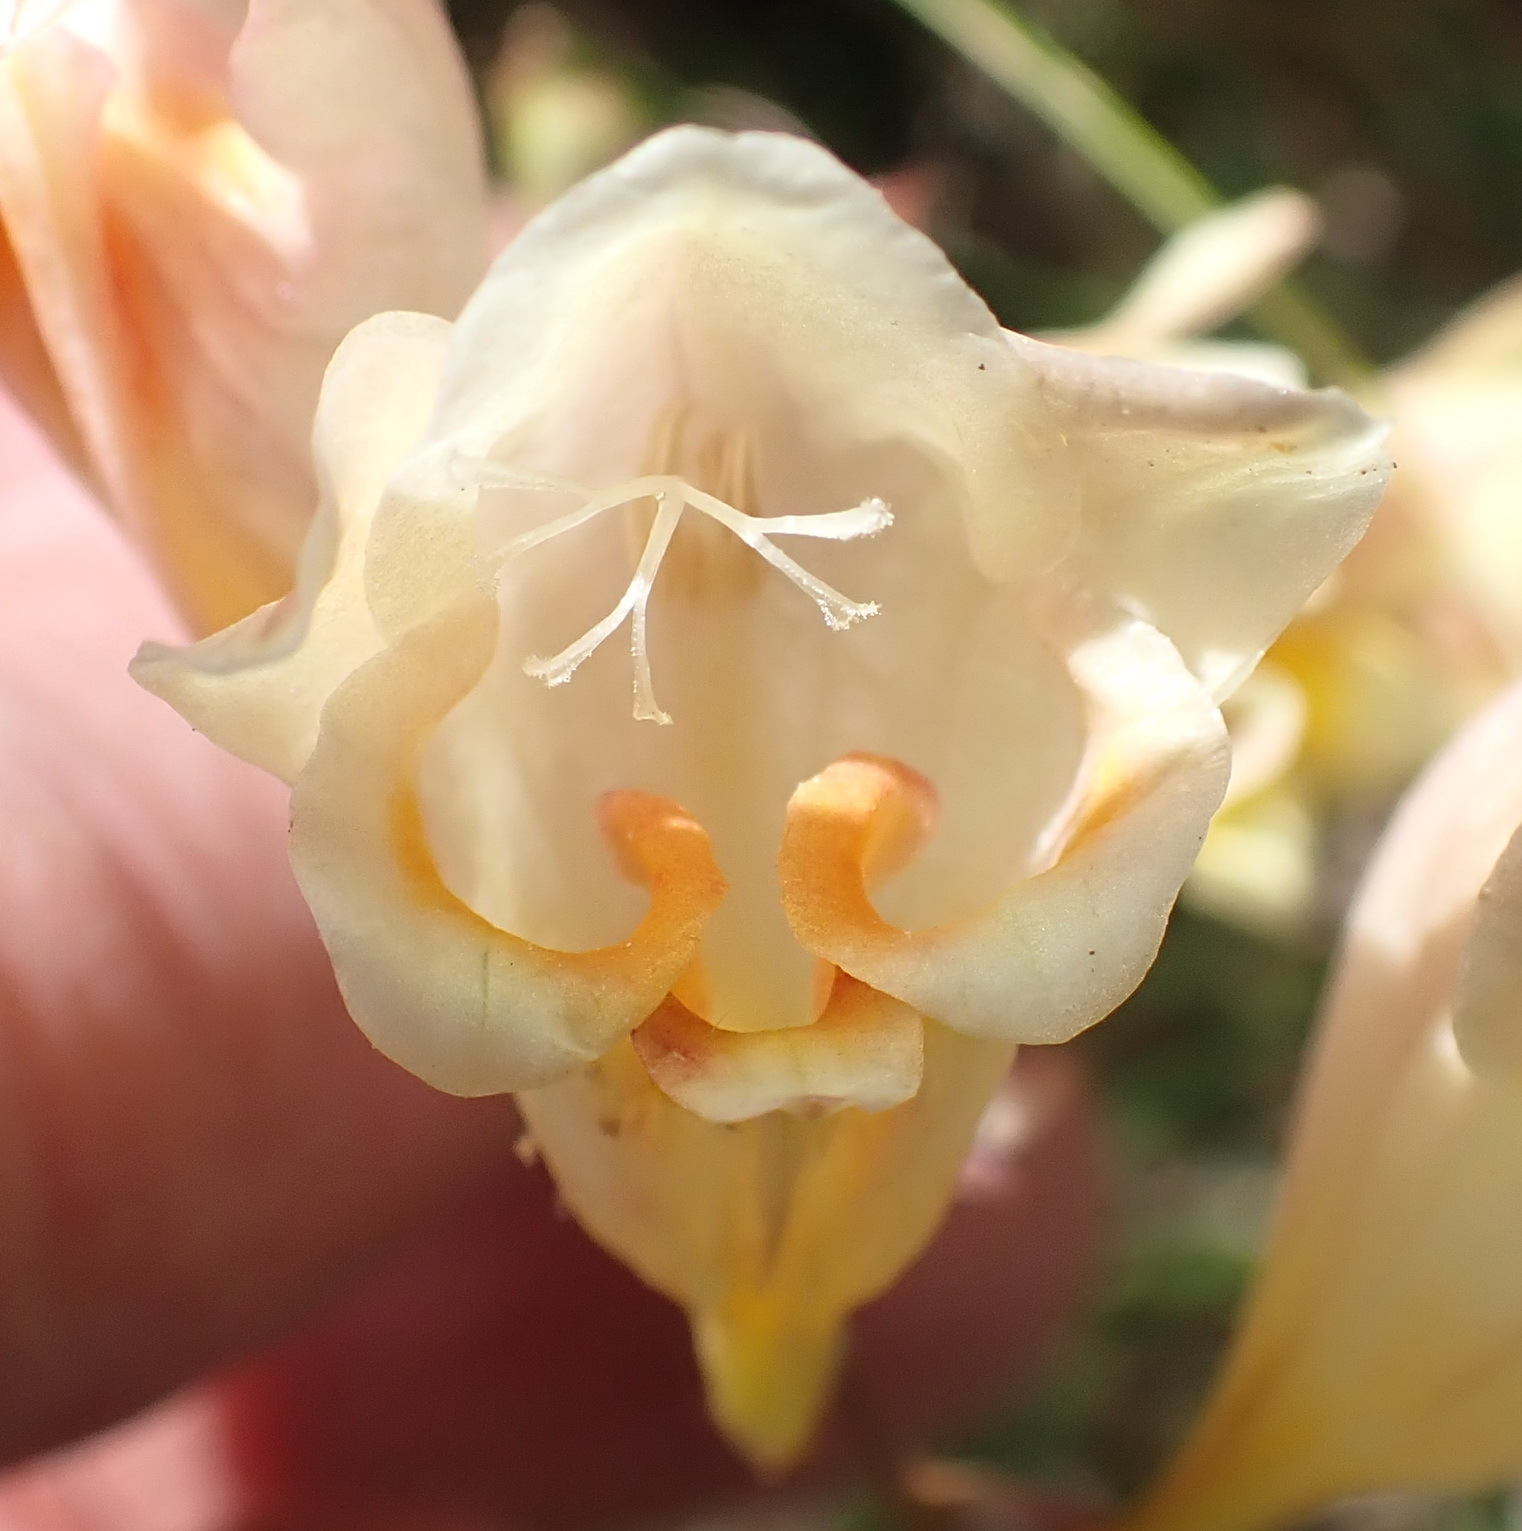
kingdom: Plantae
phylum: Tracheophyta
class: Liliopsida
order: Asparagales
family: Iridaceae
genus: Freesia
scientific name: Freesia corymbosa
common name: Common freesia
